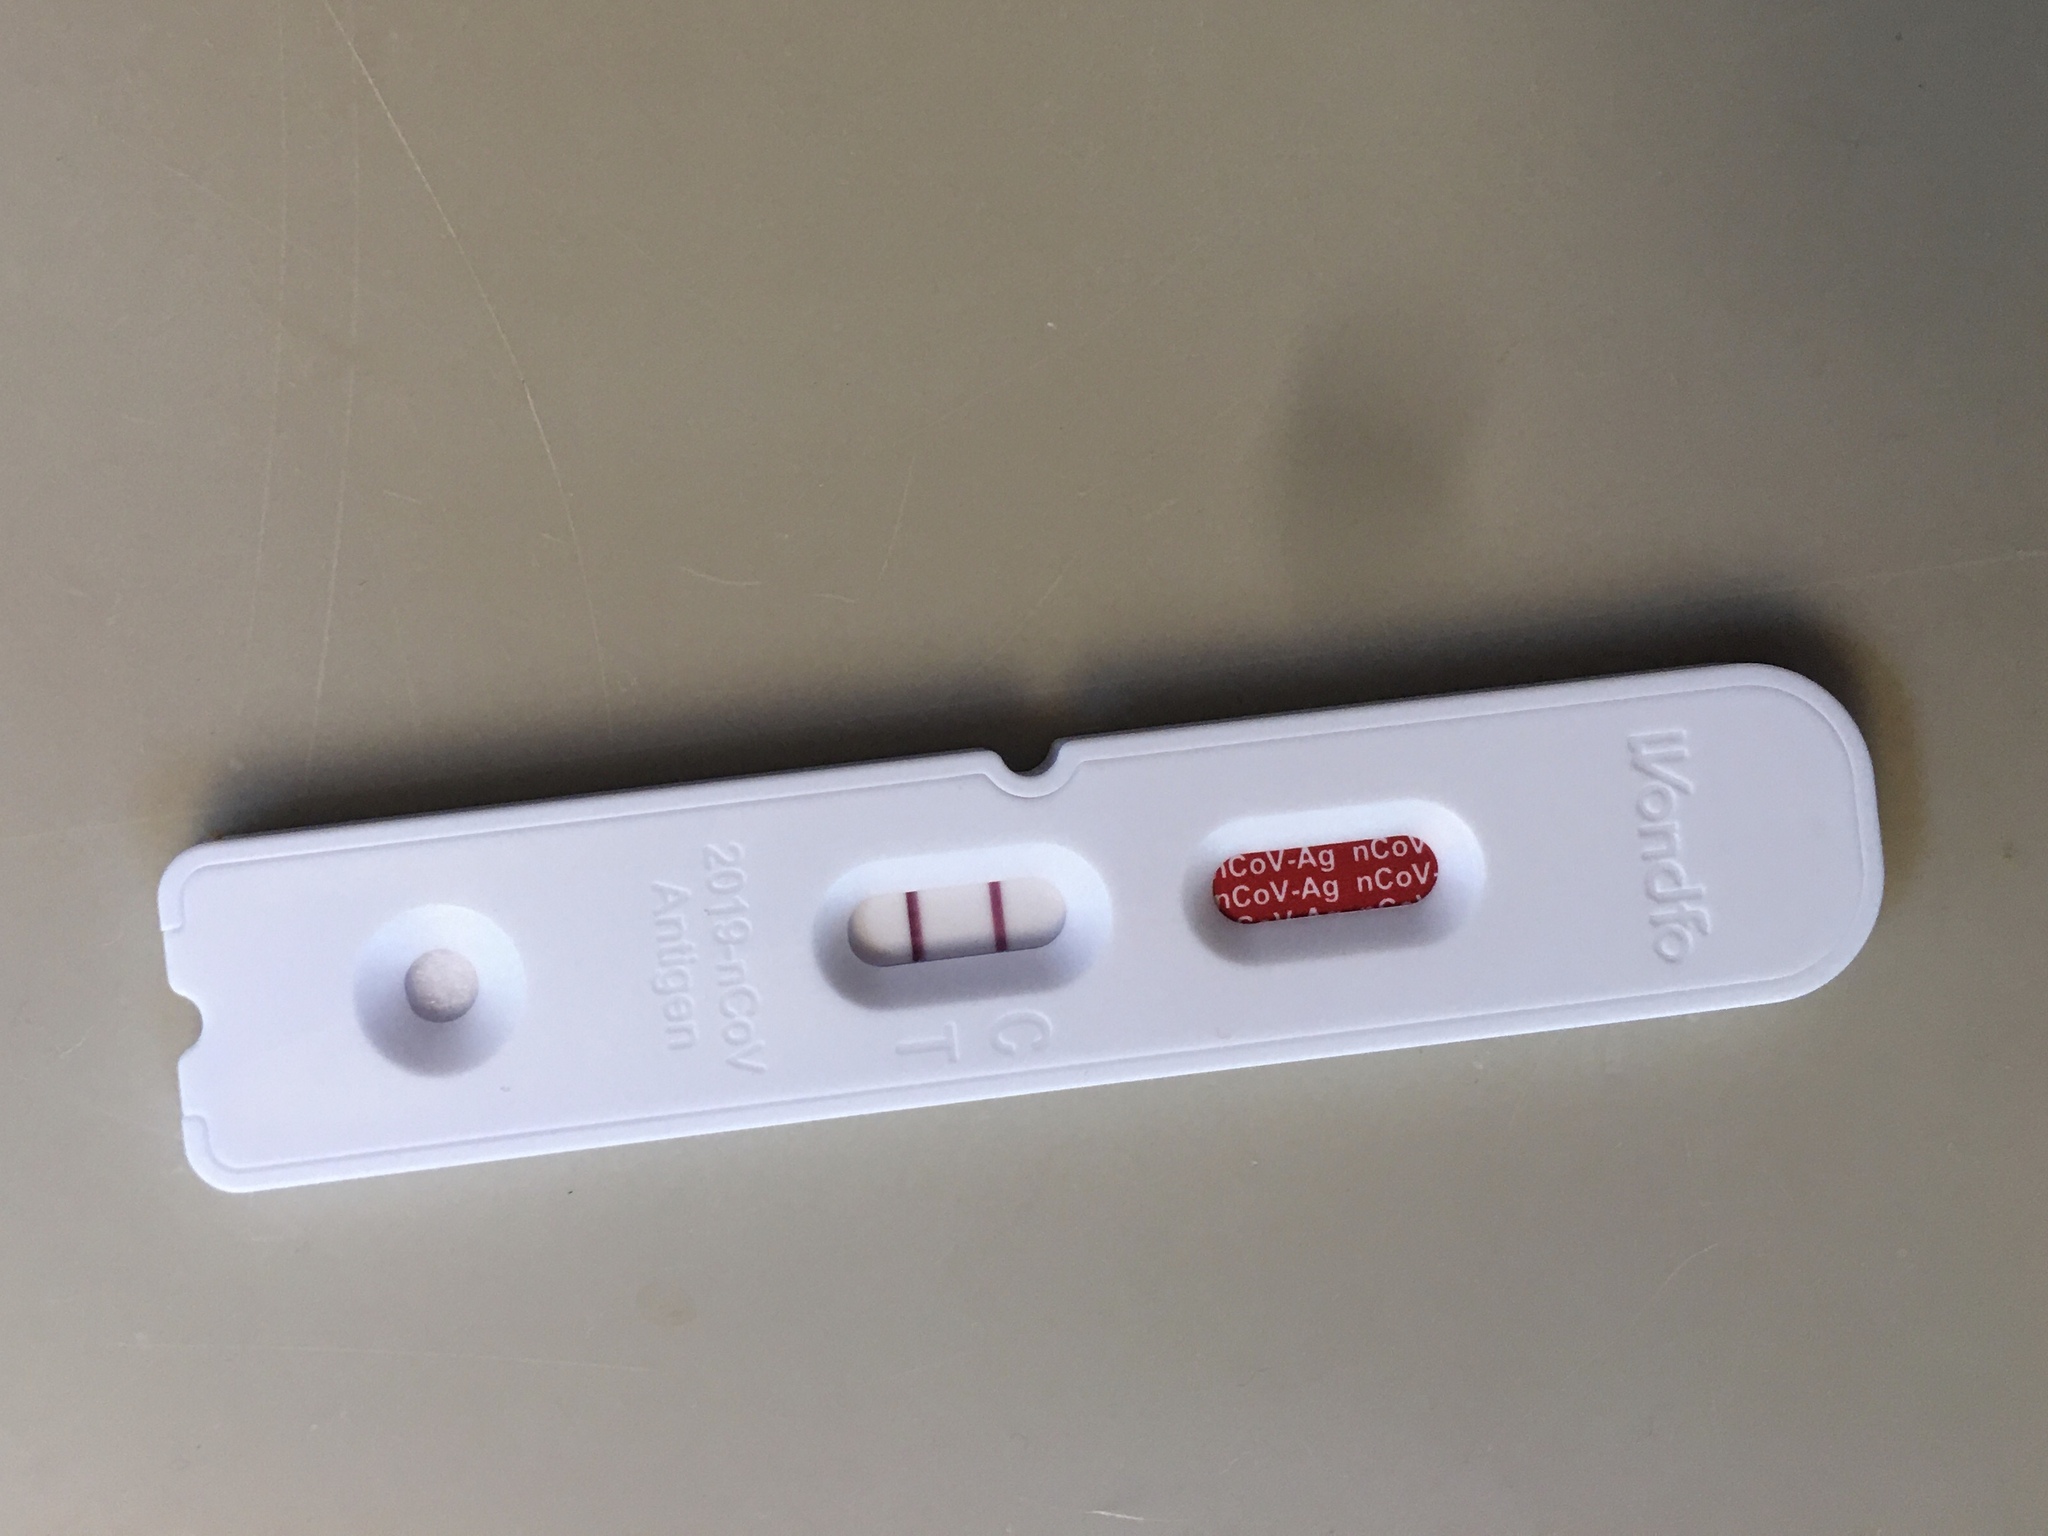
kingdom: Viruses
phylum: Pisuviricota
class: Pisoniviricetes
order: Nidovirales
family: Coronaviridae
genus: Betacoronavirus
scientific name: Betacoronavirus
